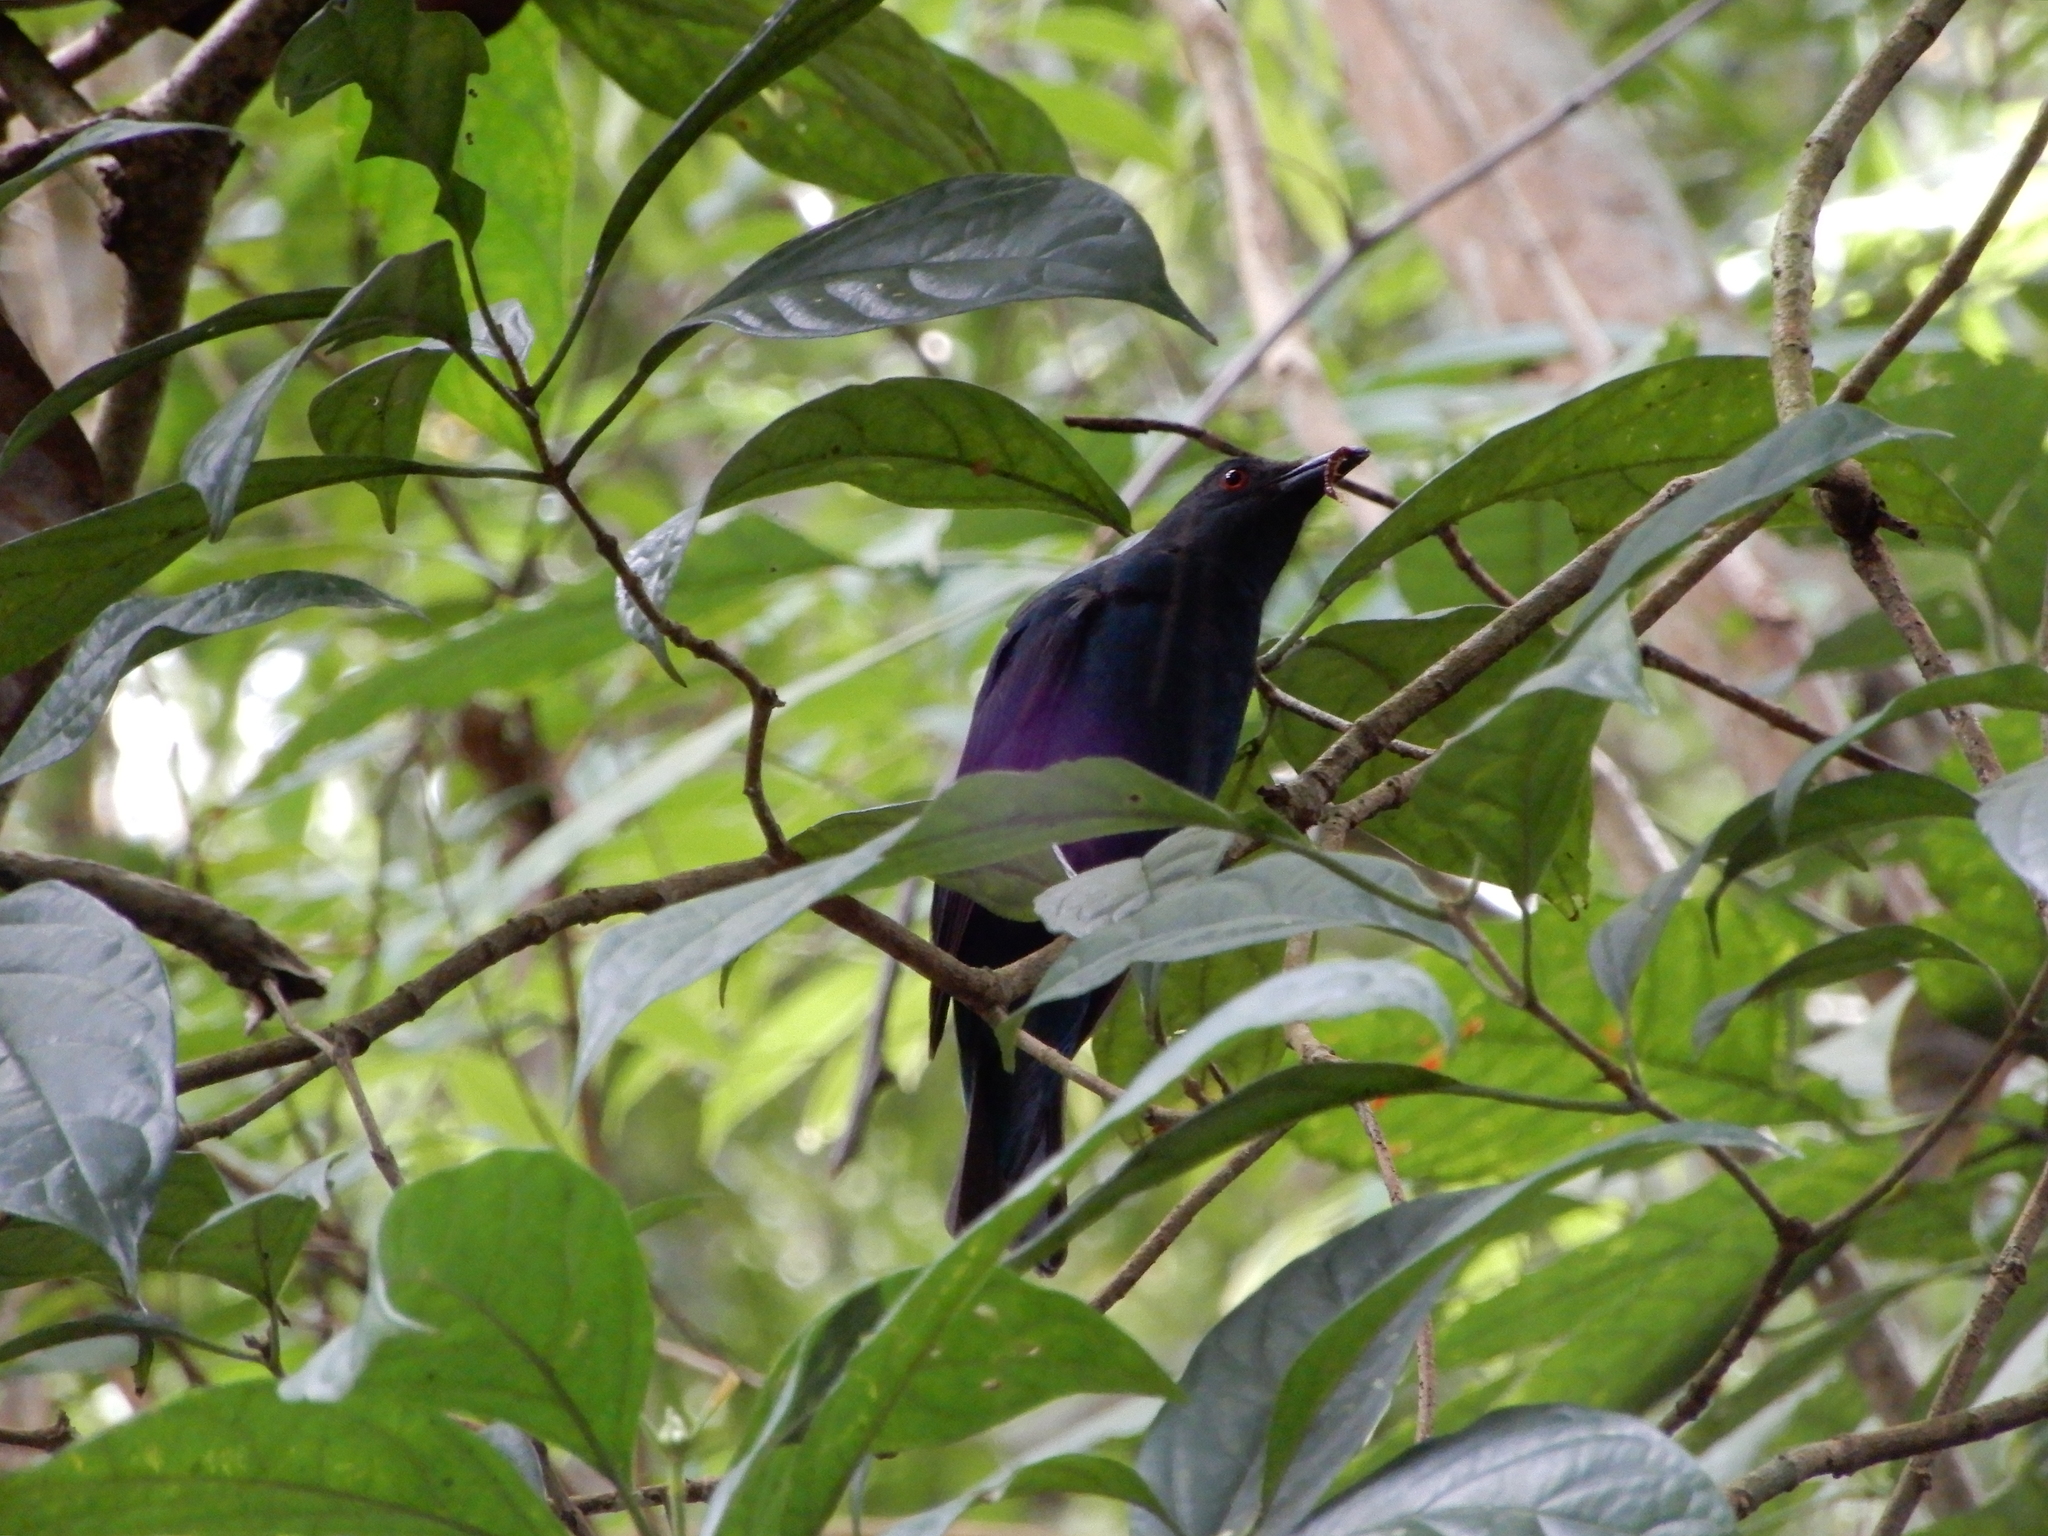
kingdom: Animalia
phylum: Chordata
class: Aves
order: Passeriformes
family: Irenidae
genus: Irena
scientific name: Irena puella
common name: Asian fairy-bluebird
